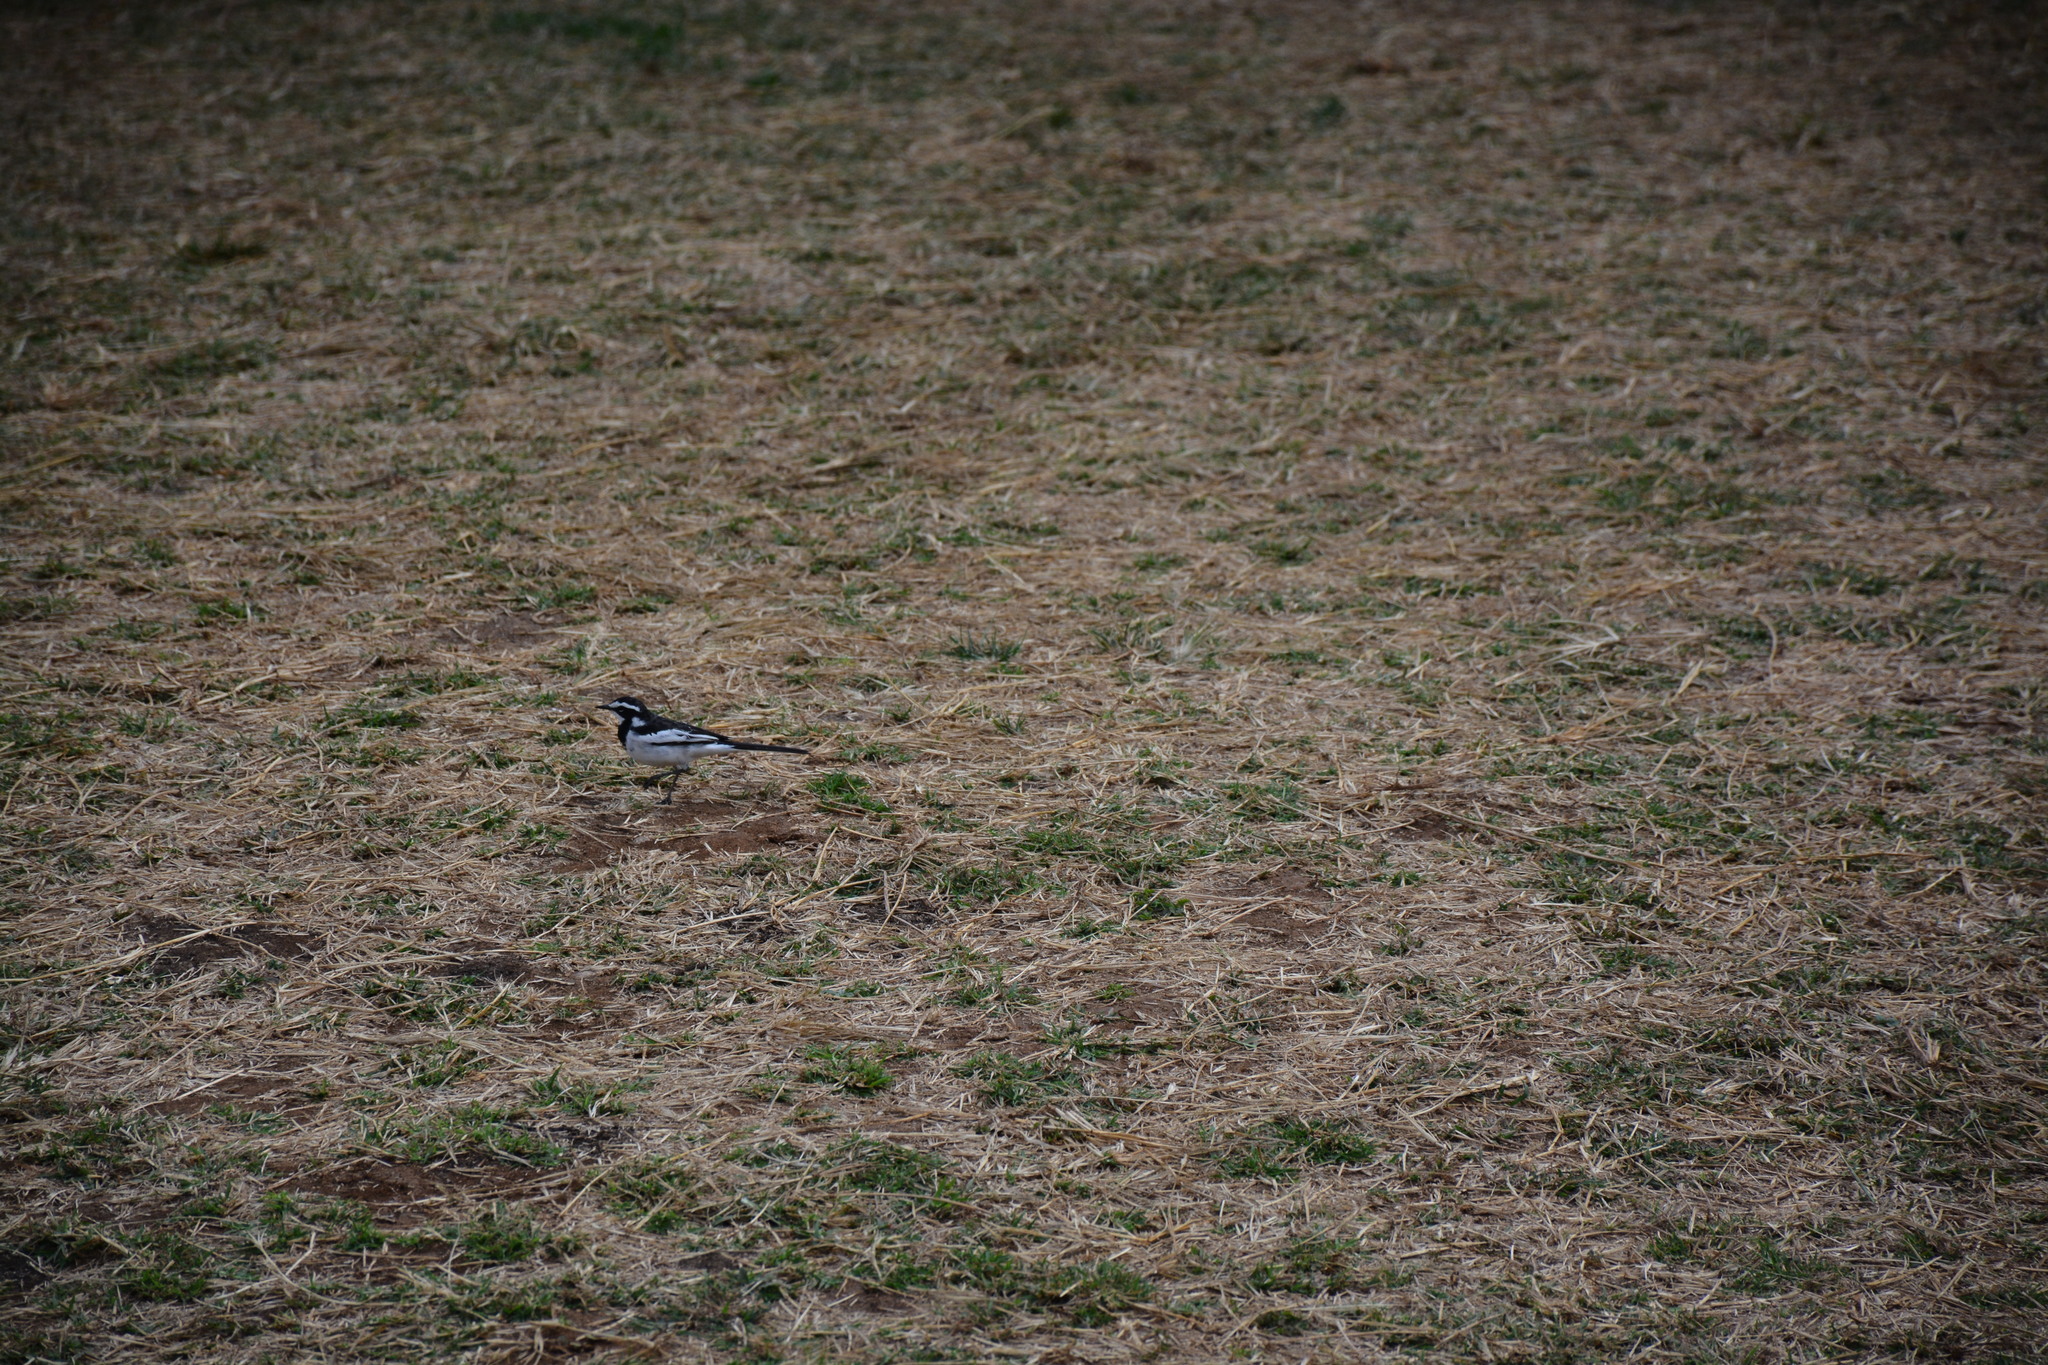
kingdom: Animalia
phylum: Chordata
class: Aves
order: Passeriformes
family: Motacillidae
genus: Motacilla
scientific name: Motacilla aguimp
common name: African pied wagtail
